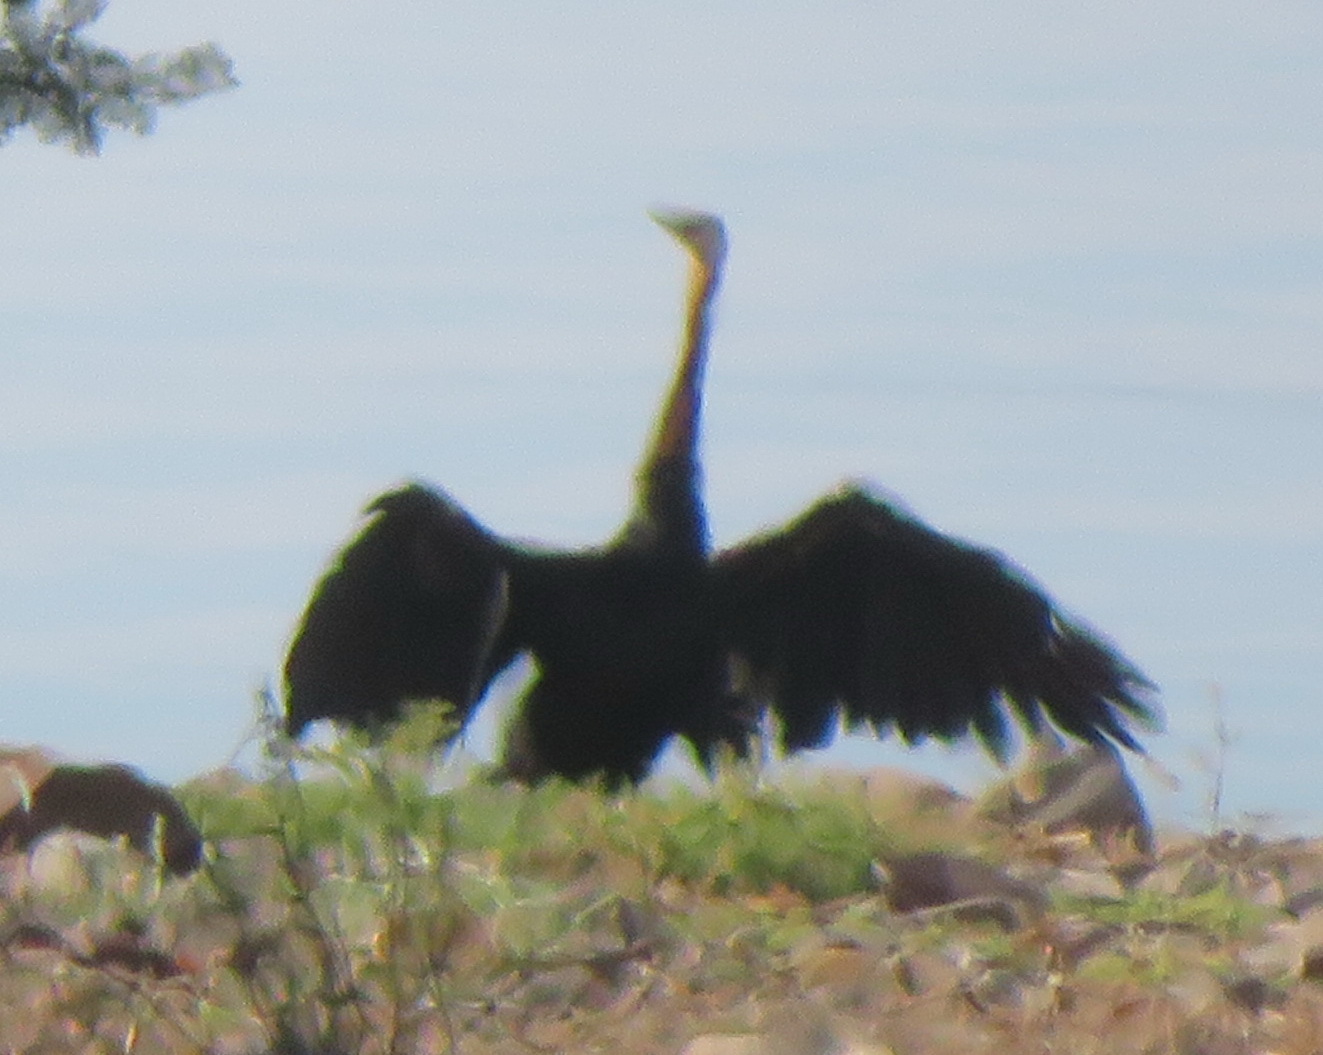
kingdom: Animalia
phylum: Chordata
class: Aves
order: Suliformes
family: Phalacrocoracidae
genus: Microcarbo
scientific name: Microcarbo africanus
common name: Long-tailed cormorant
